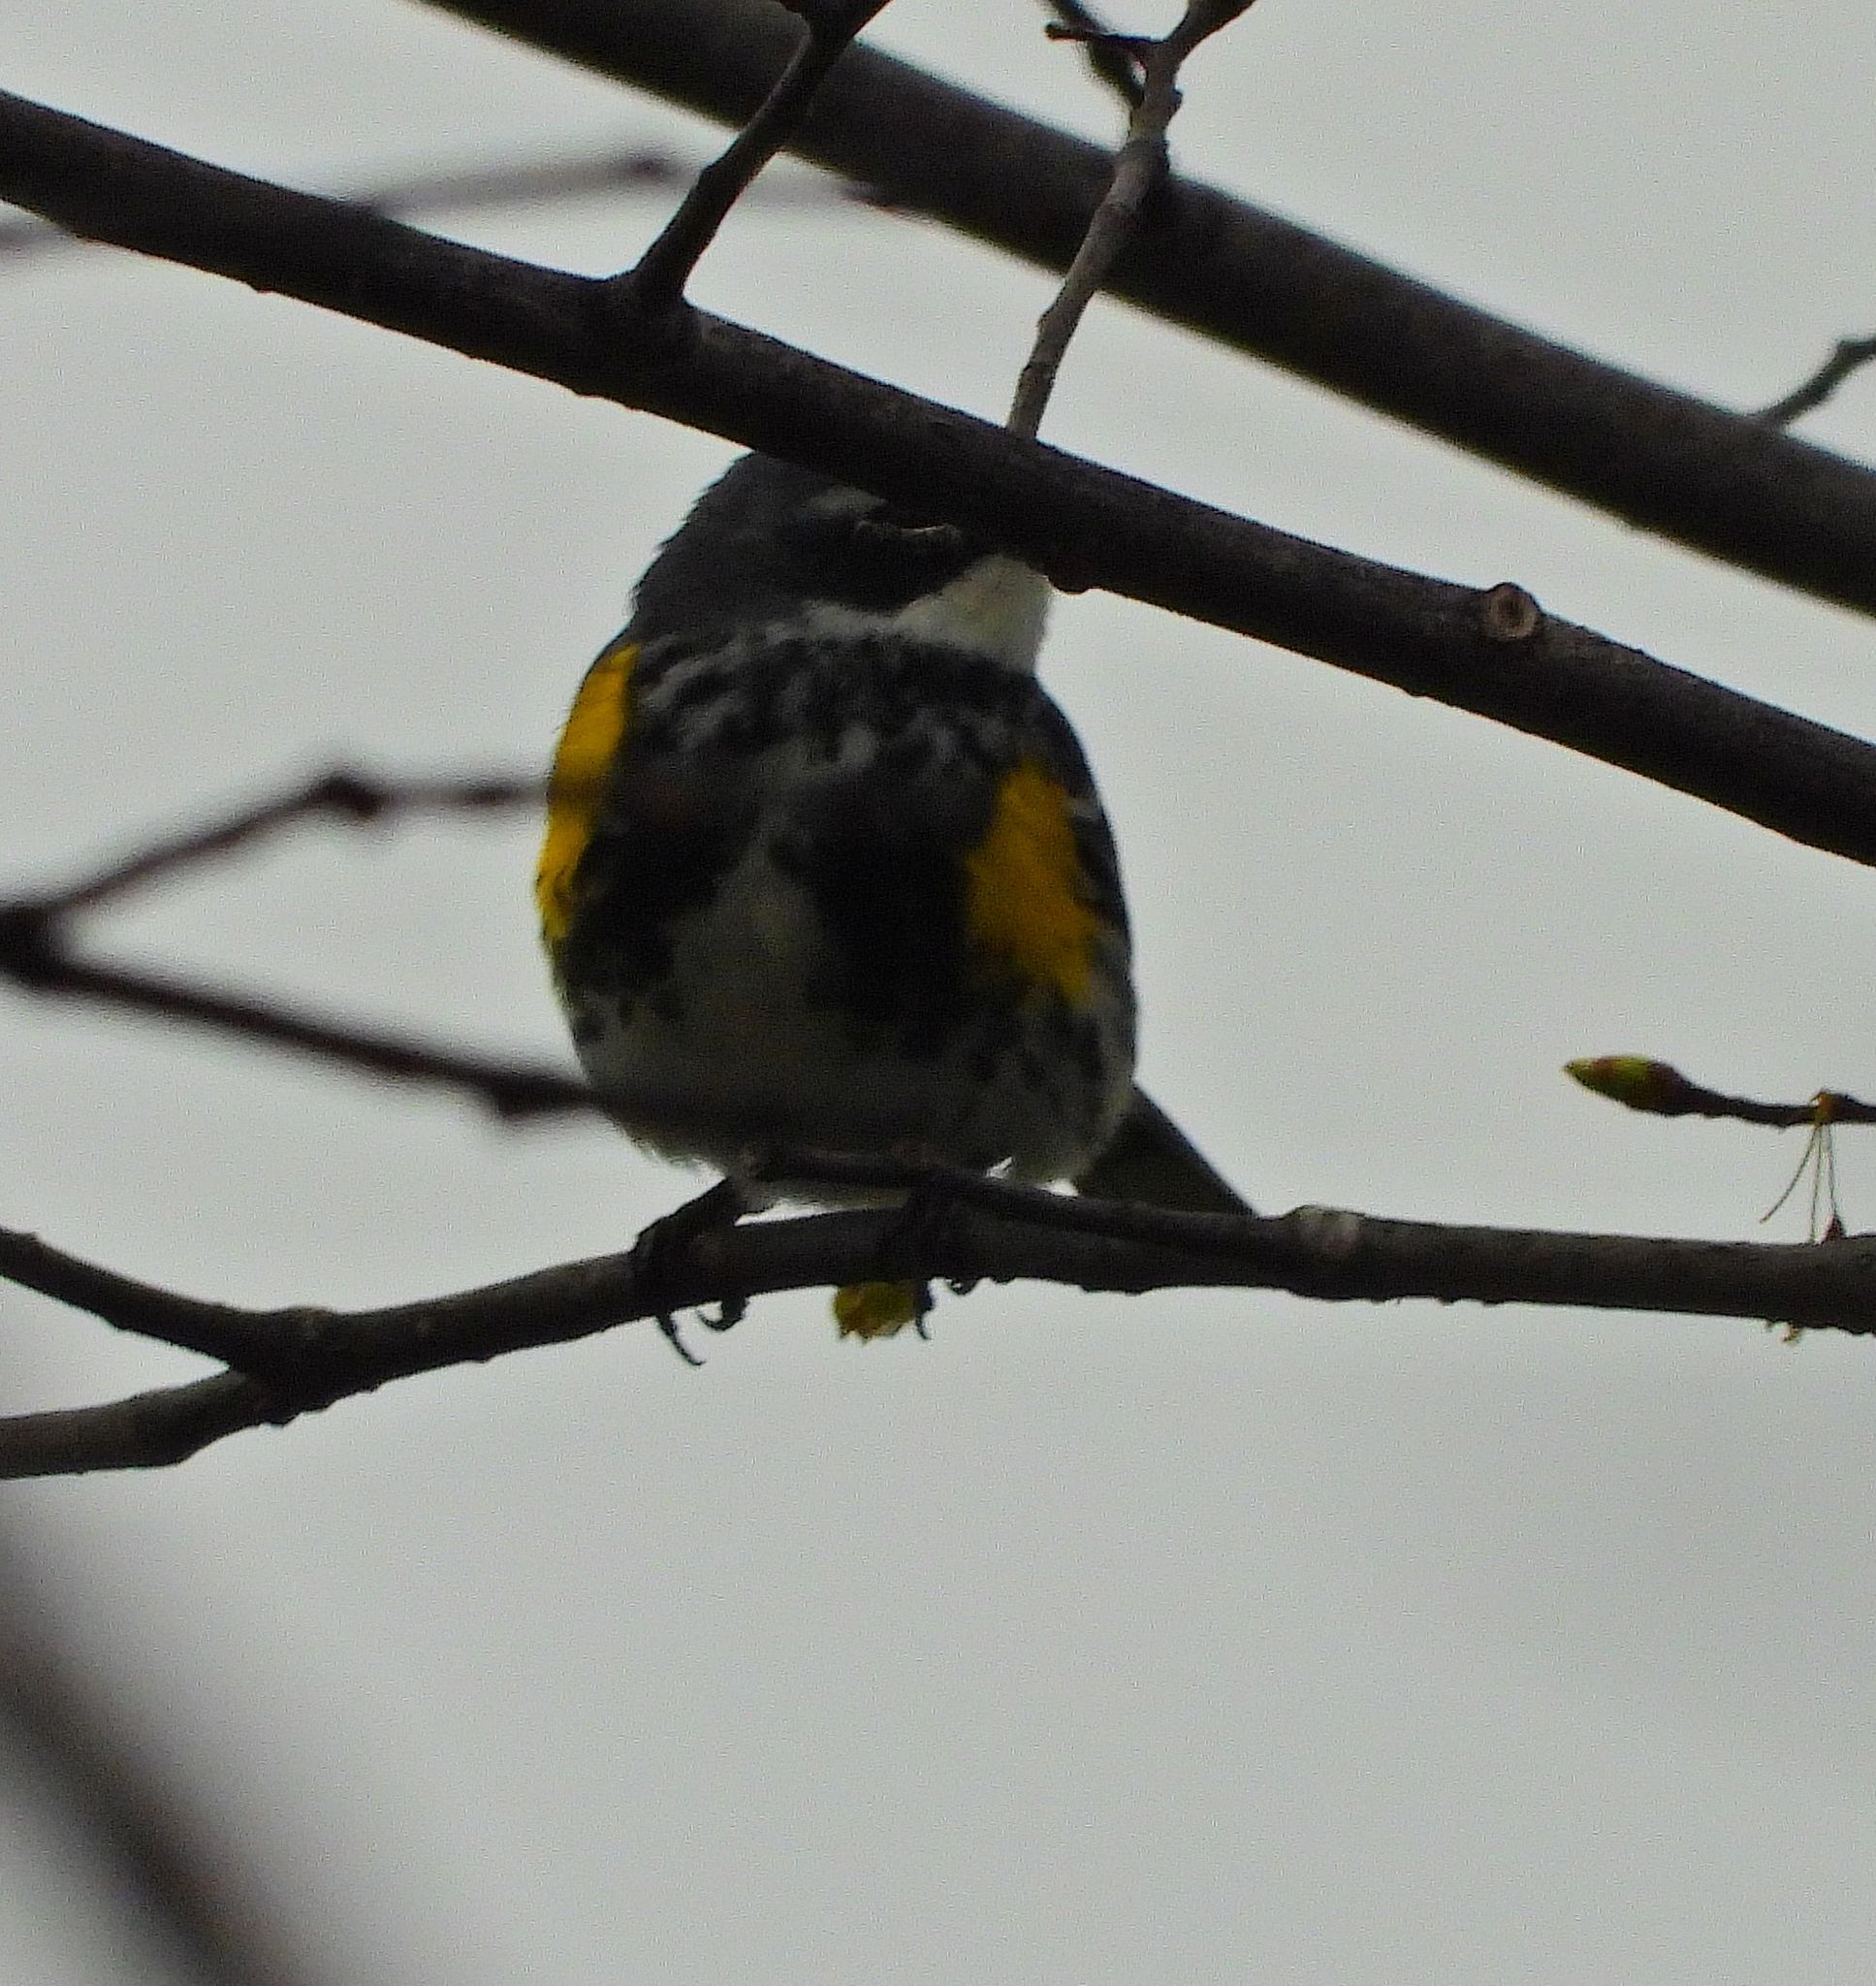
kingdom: Animalia
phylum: Chordata
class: Aves
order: Passeriformes
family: Parulidae
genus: Setophaga
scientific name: Setophaga coronata
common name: Myrtle warbler
